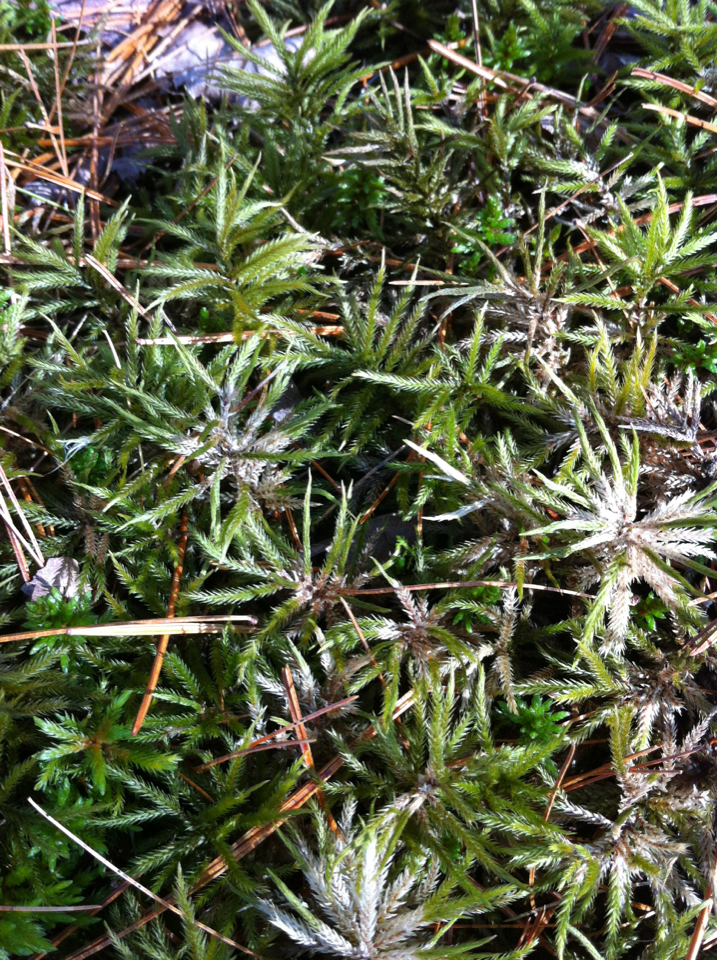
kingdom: Plantae
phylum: Bryophyta
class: Bryopsida
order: Hypnales
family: Climaciaceae
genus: Climacium
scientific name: Climacium dendroides
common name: Northern tree moss
